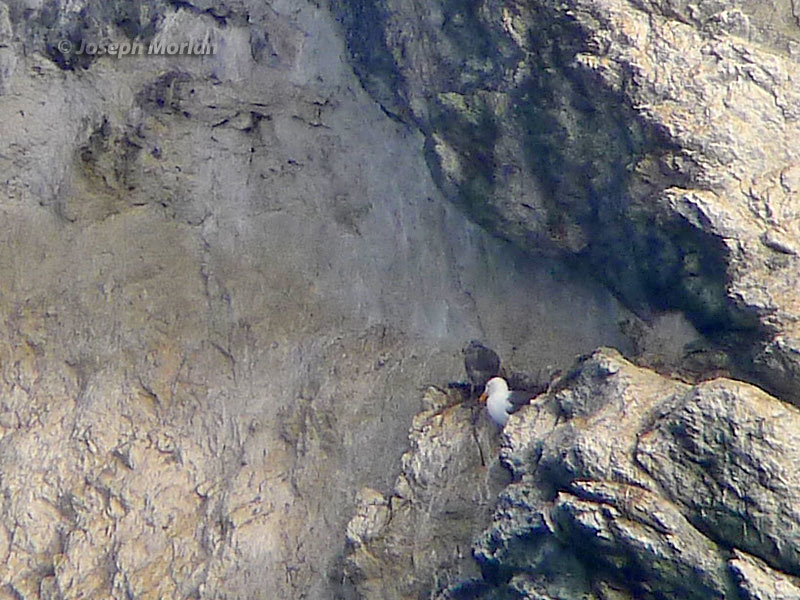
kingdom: Animalia
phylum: Chordata
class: Aves
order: Charadriiformes
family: Laridae
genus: Larus
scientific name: Larus occidentalis
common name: Western gull
